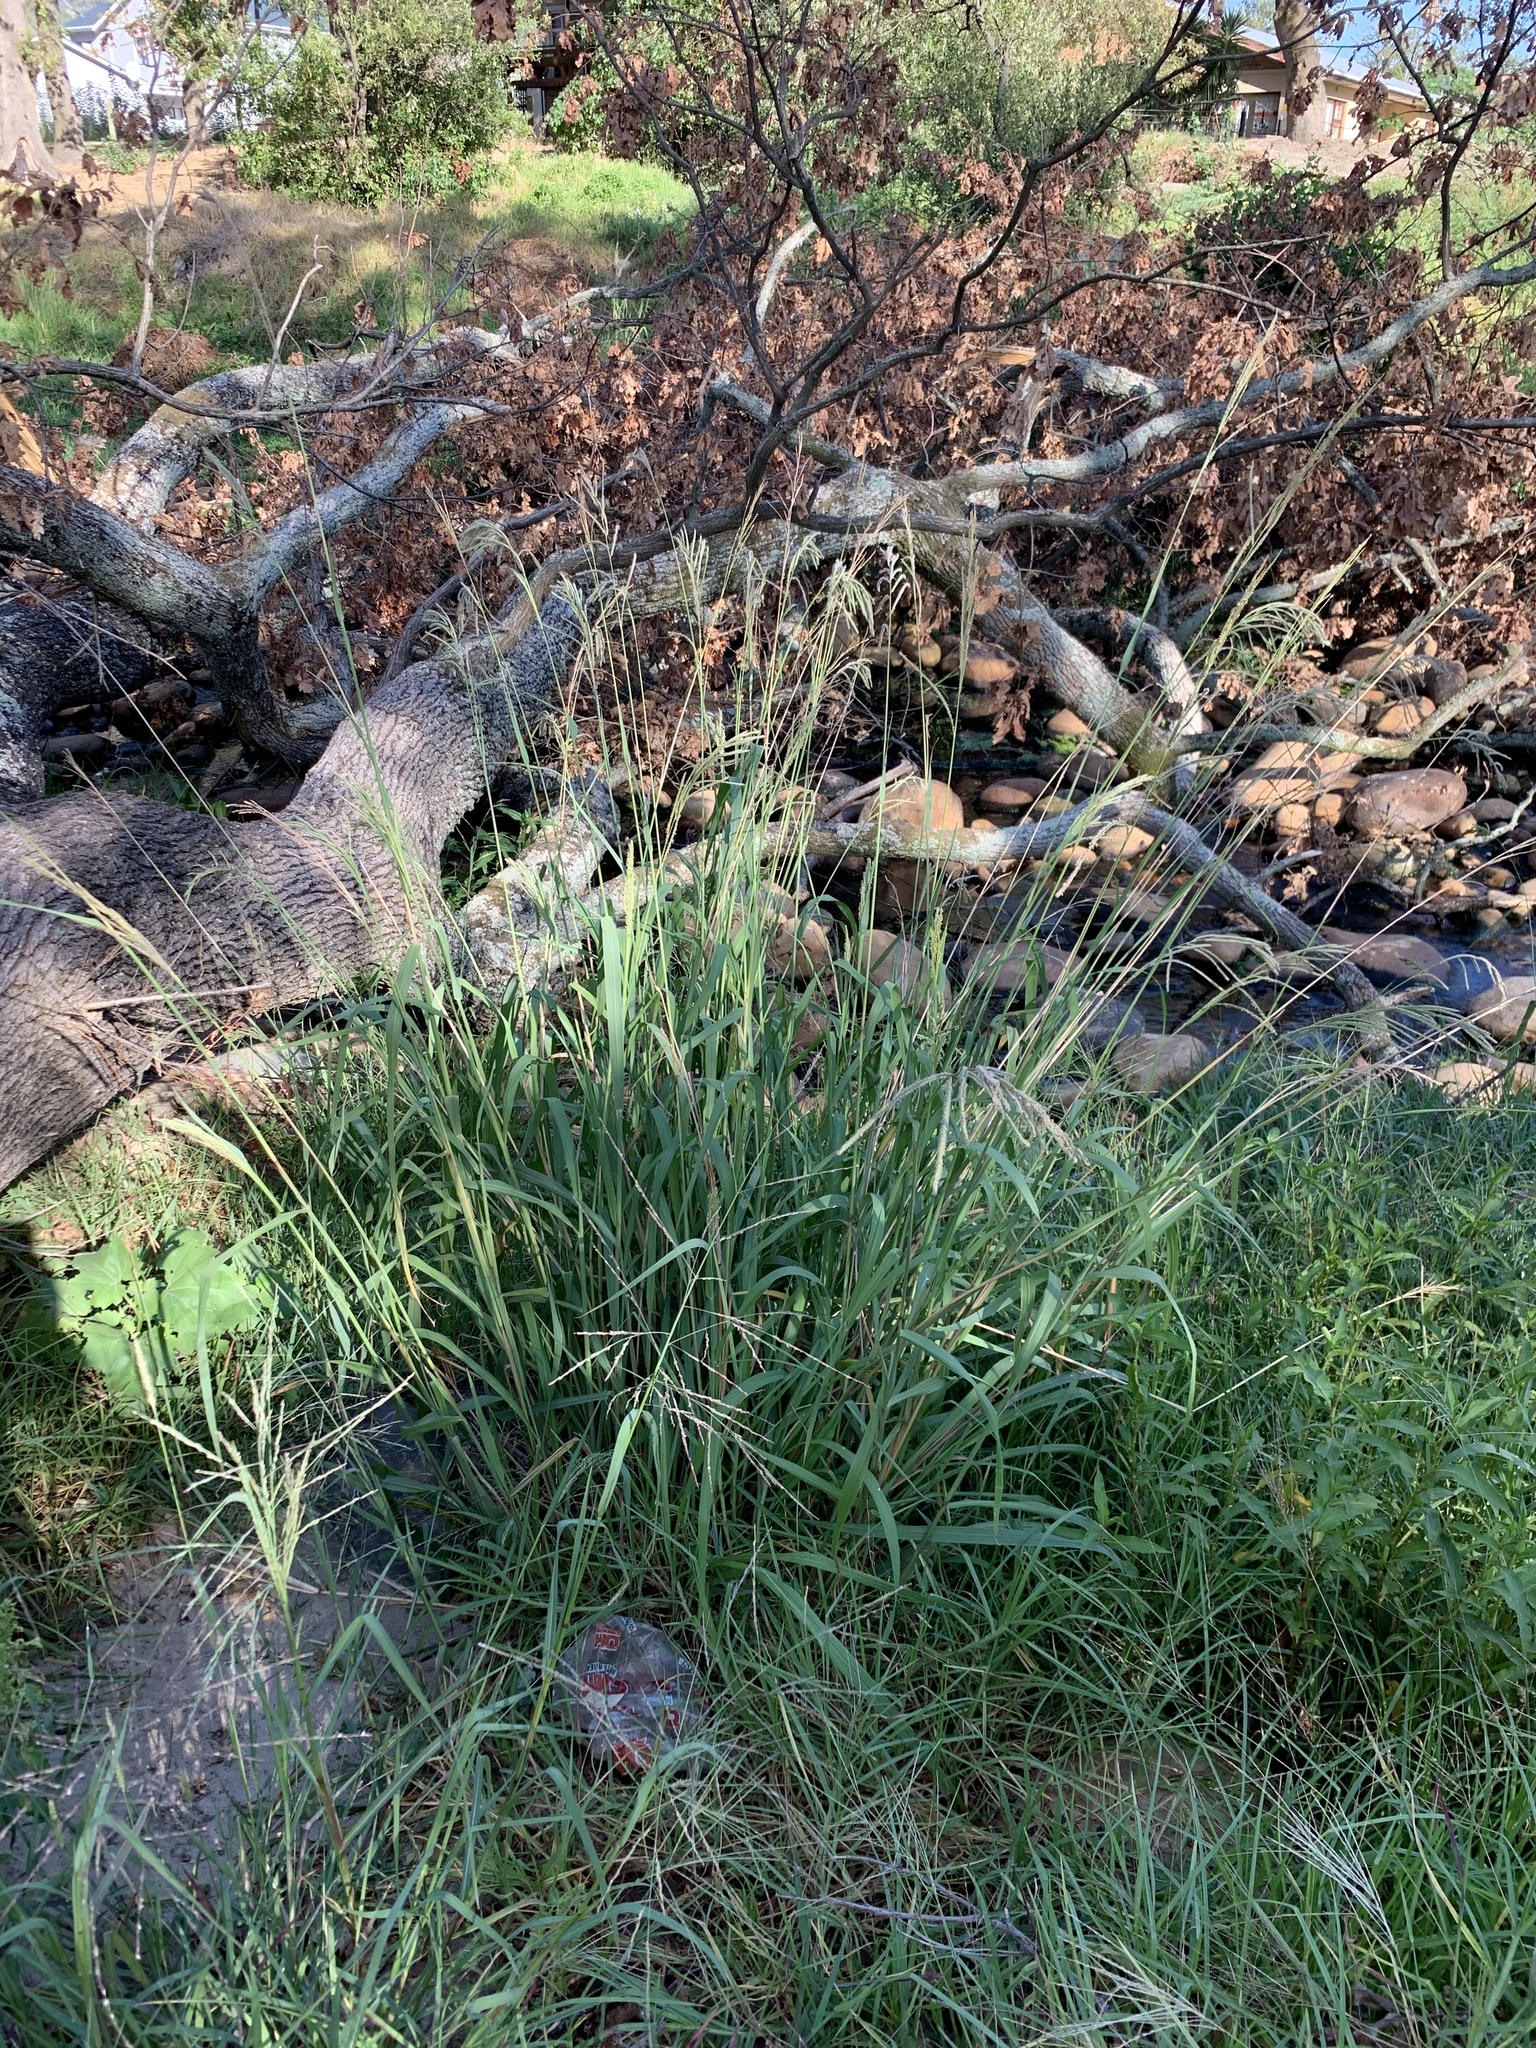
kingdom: Plantae
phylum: Tracheophyta
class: Liliopsida
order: Poales
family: Poaceae
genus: Paspalum
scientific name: Paspalum urvillei
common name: Vasey's grass
